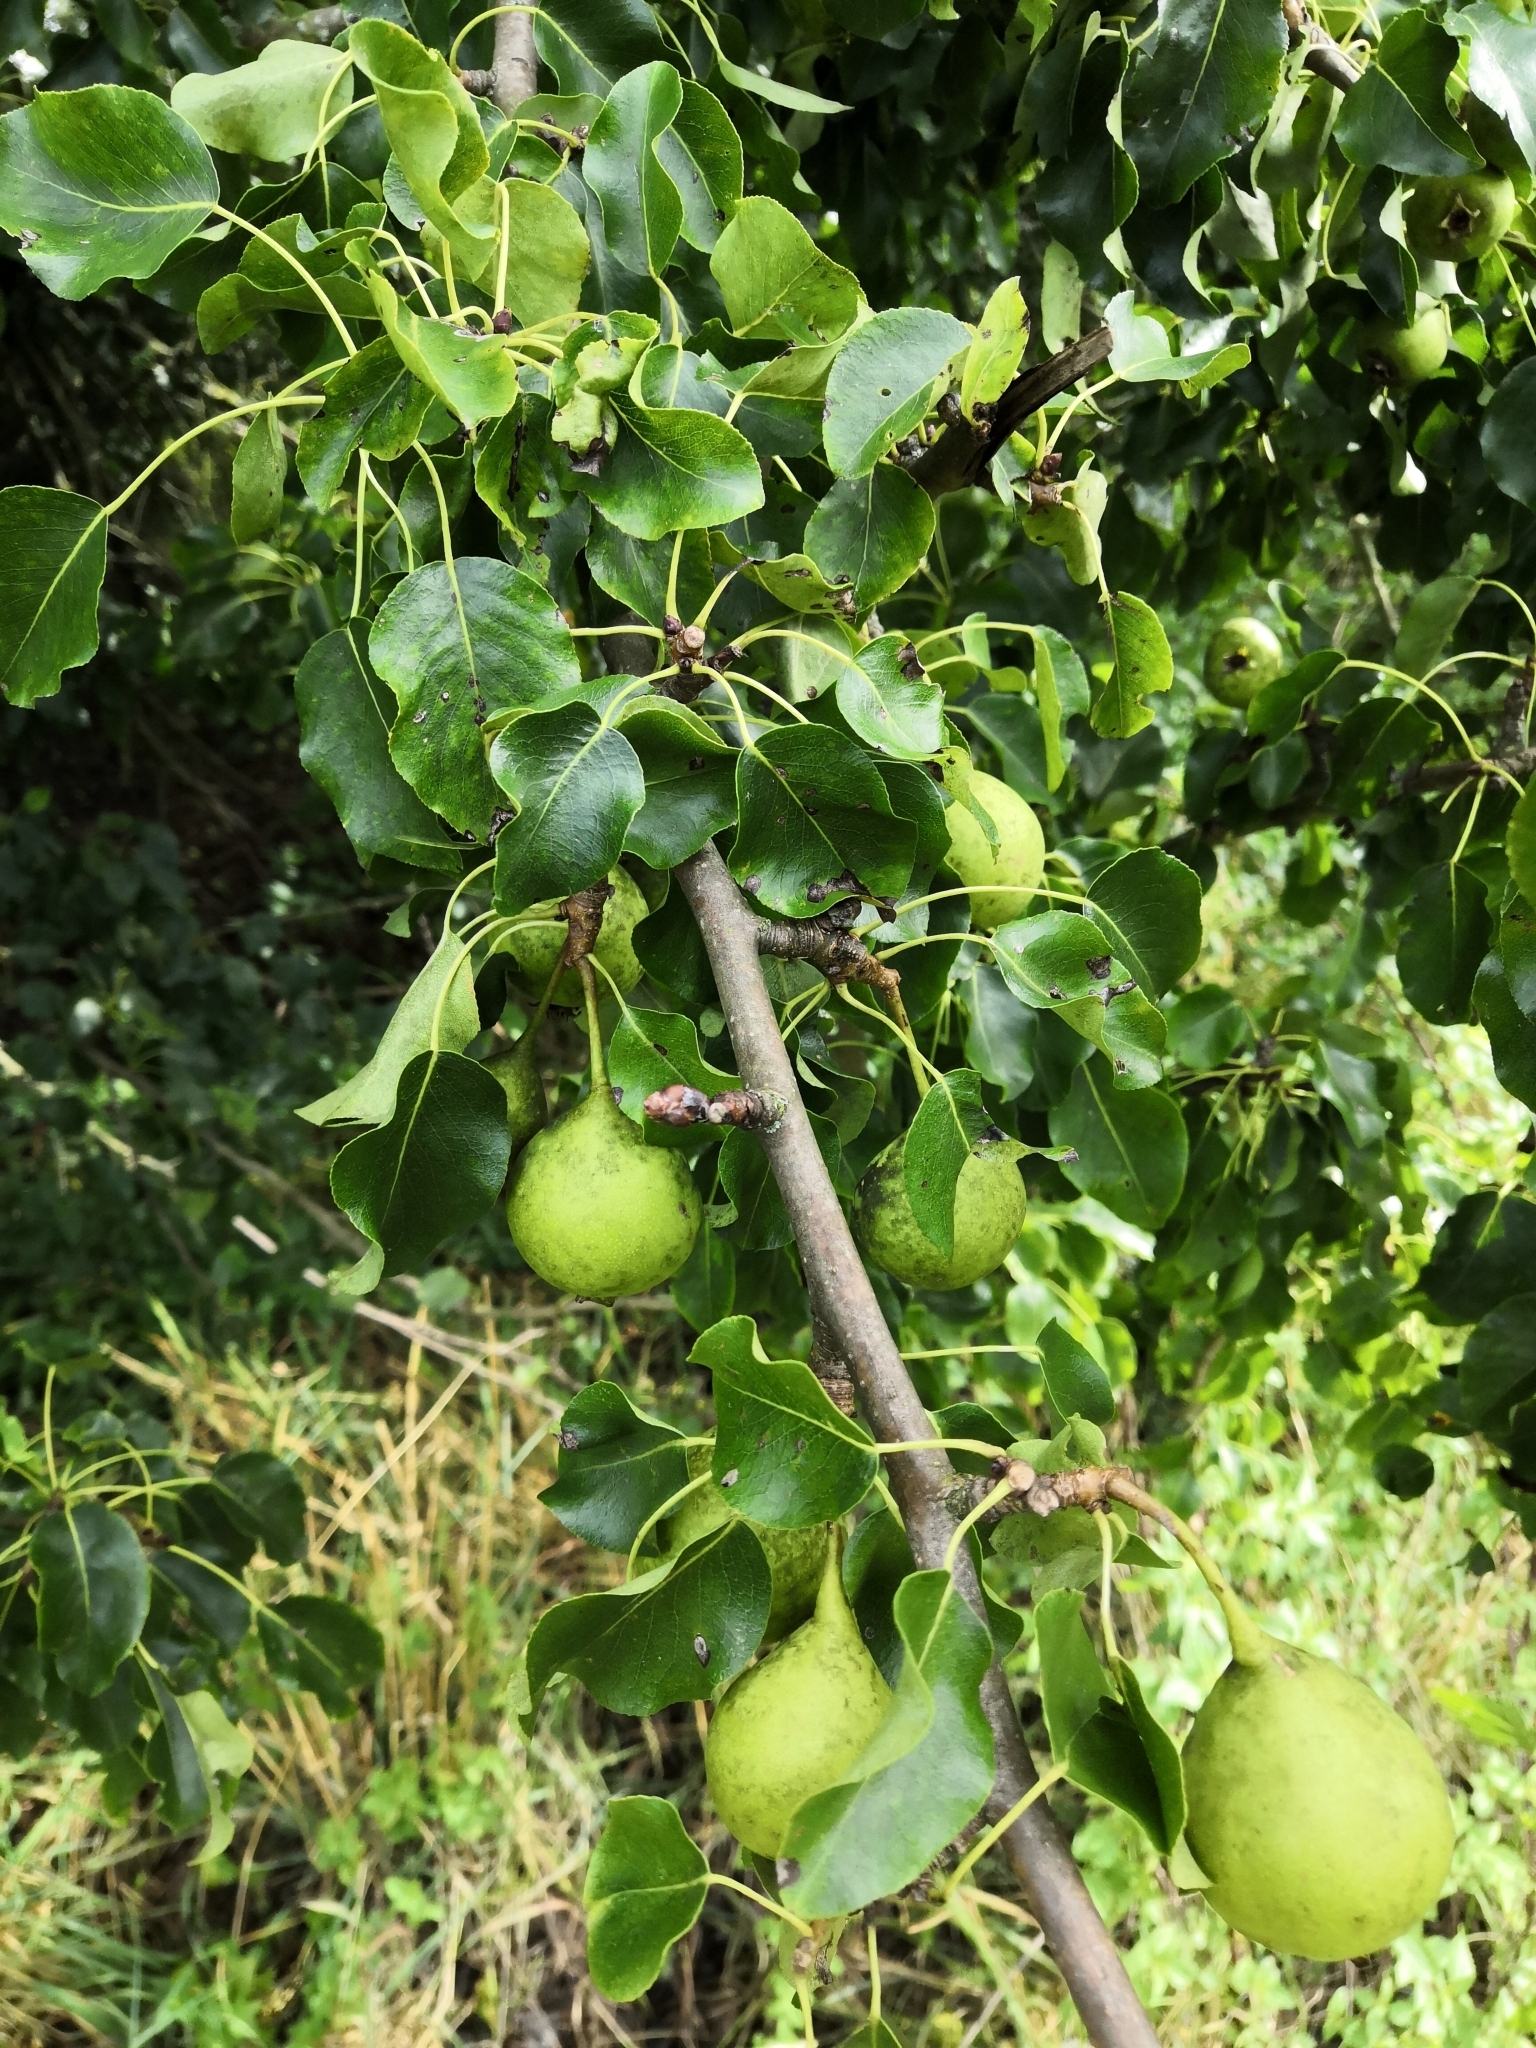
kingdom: Plantae
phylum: Tracheophyta
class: Magnoliopsida
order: Rosales
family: Rosaceae
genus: Pyrus
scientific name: Pyrus communis
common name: Pear
